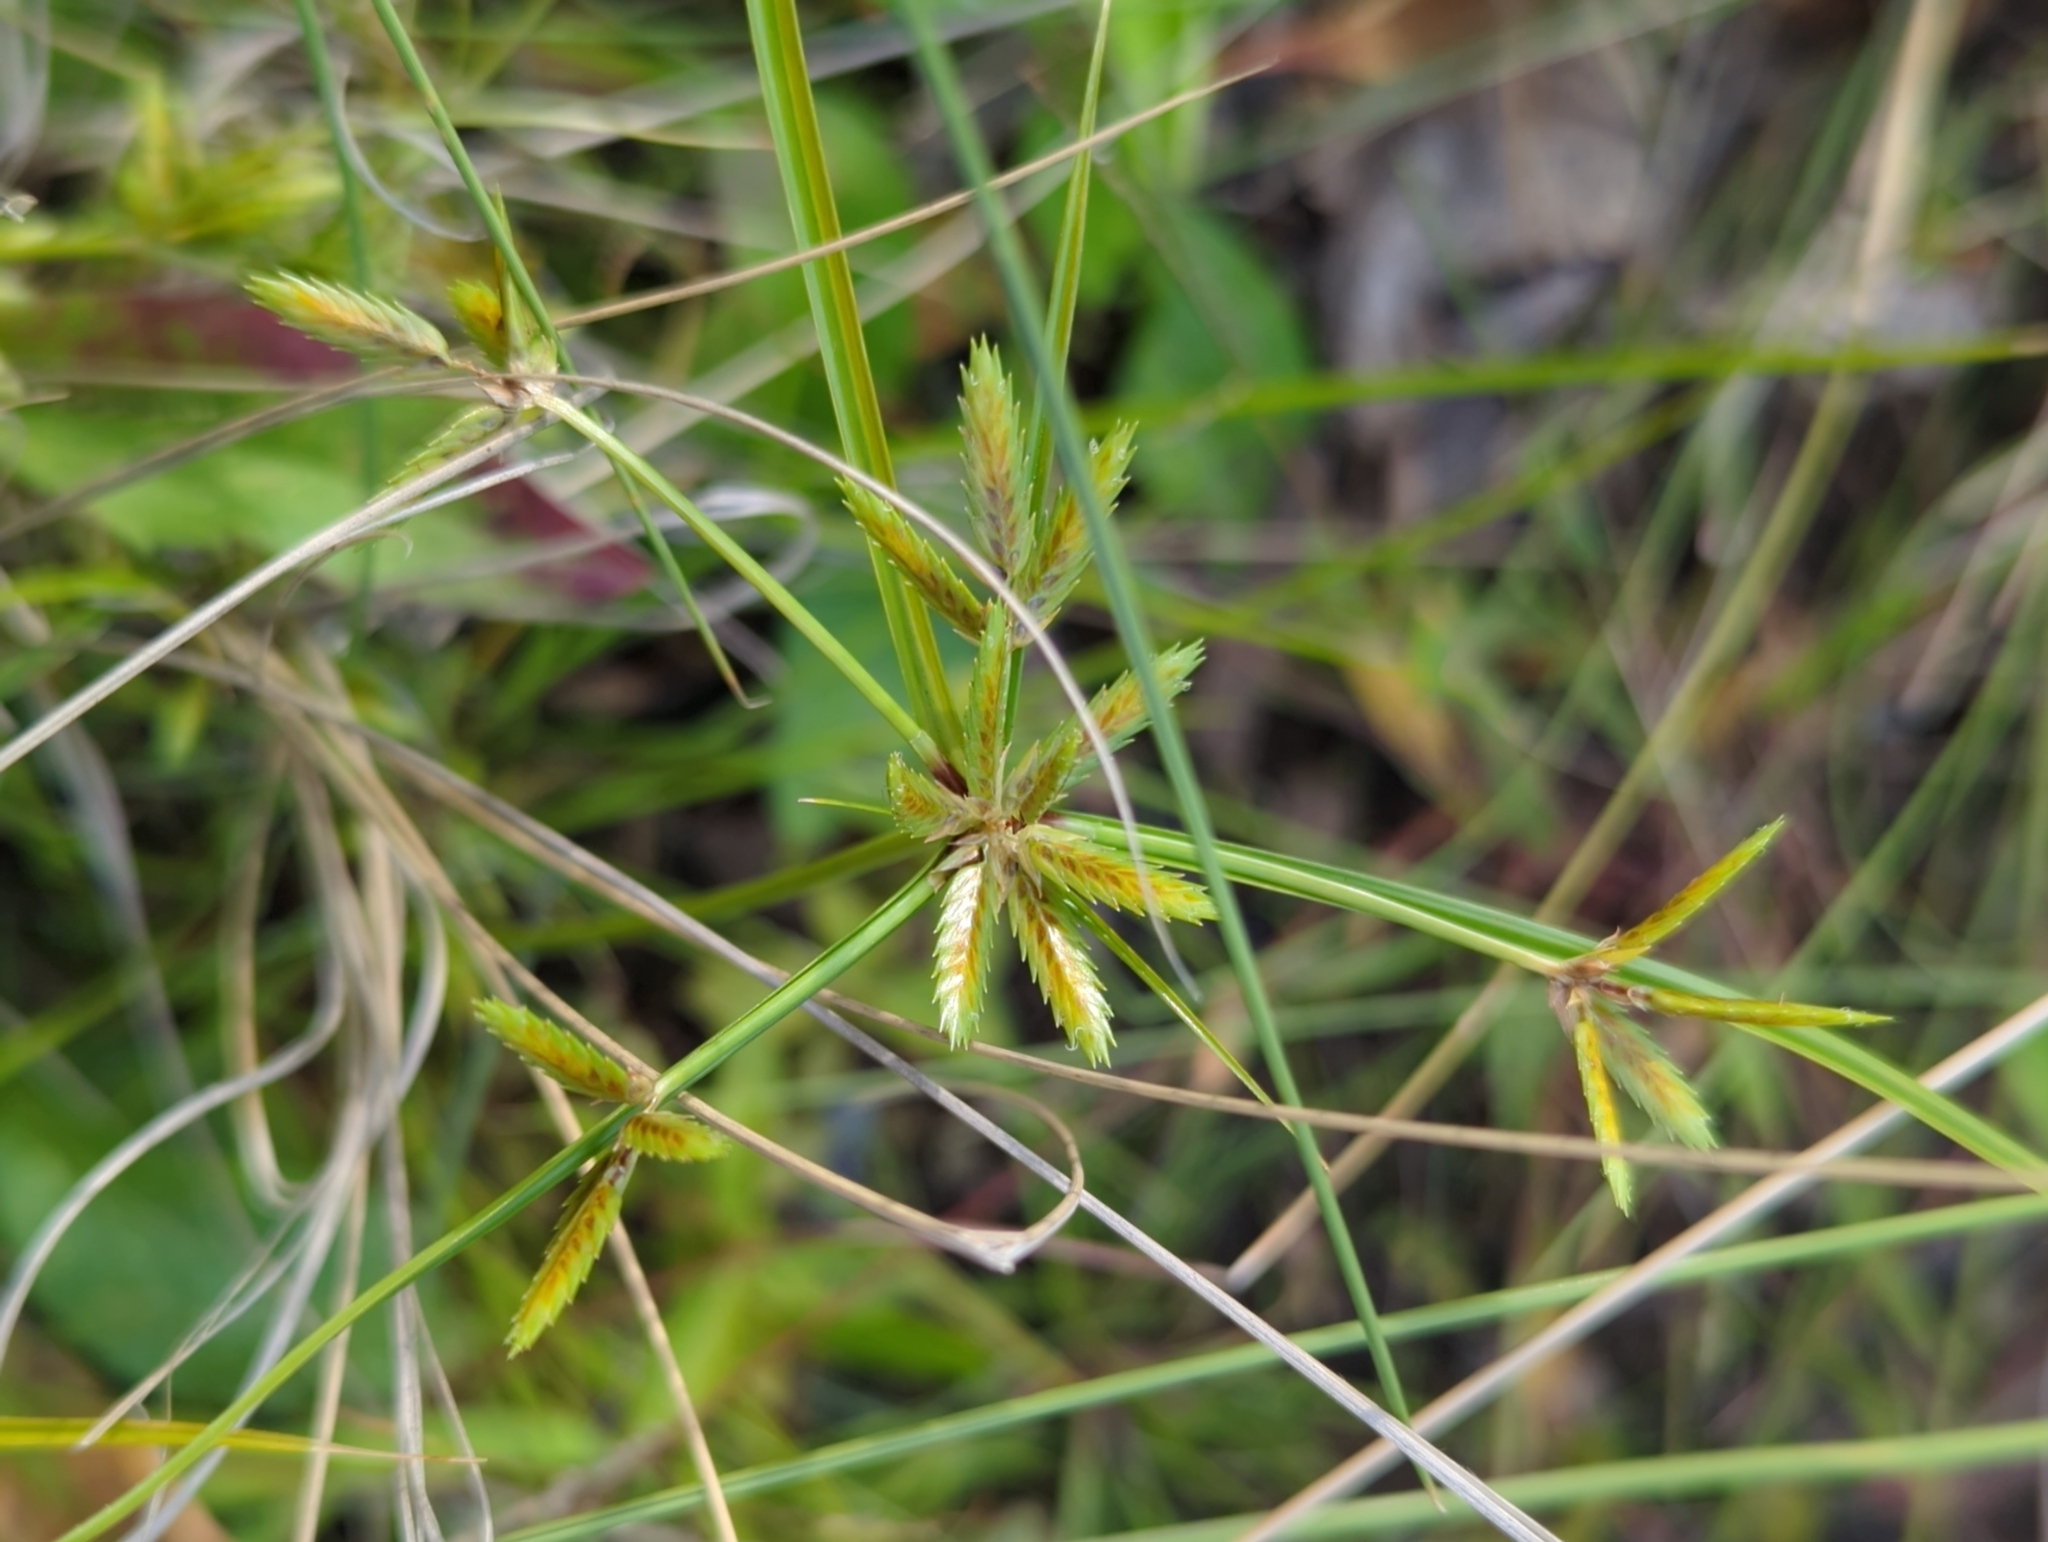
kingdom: Plantae
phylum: Tracheophyta
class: Liliopsida
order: Poales
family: Cyperaceae
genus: Cyperus
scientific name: Cyperus compressus
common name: Poorland flatsedge
